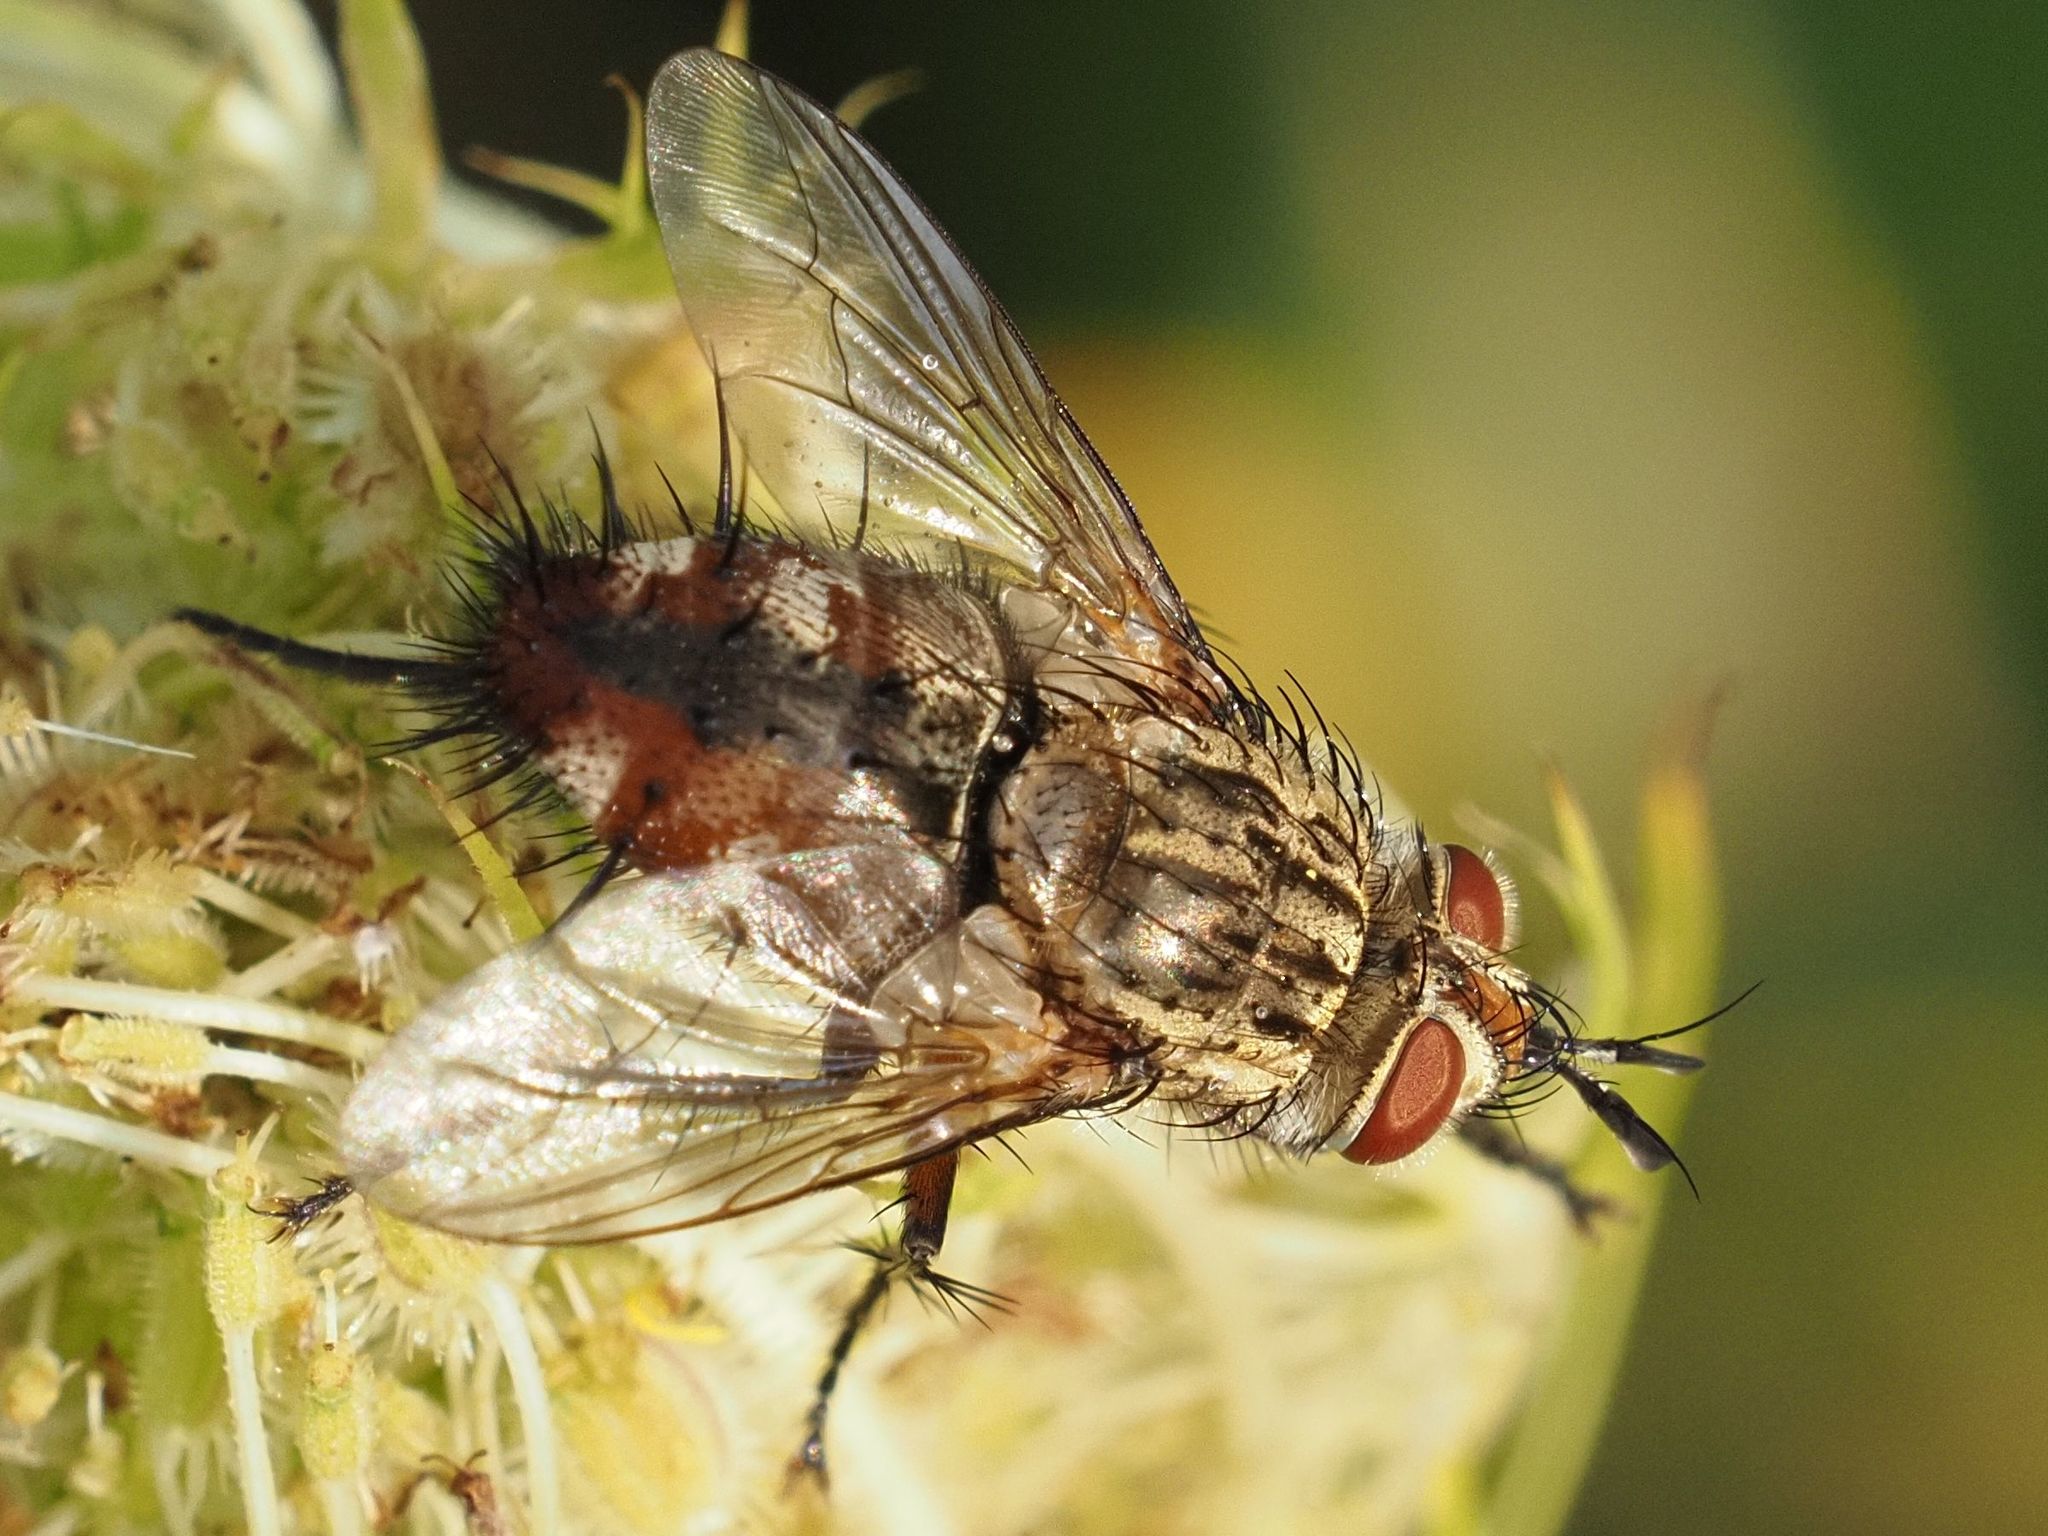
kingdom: Animalia
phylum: Arthropoda
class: Insecta
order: Diptera
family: Tachinidae
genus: Linnaemya
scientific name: Linnaemya vulpina
